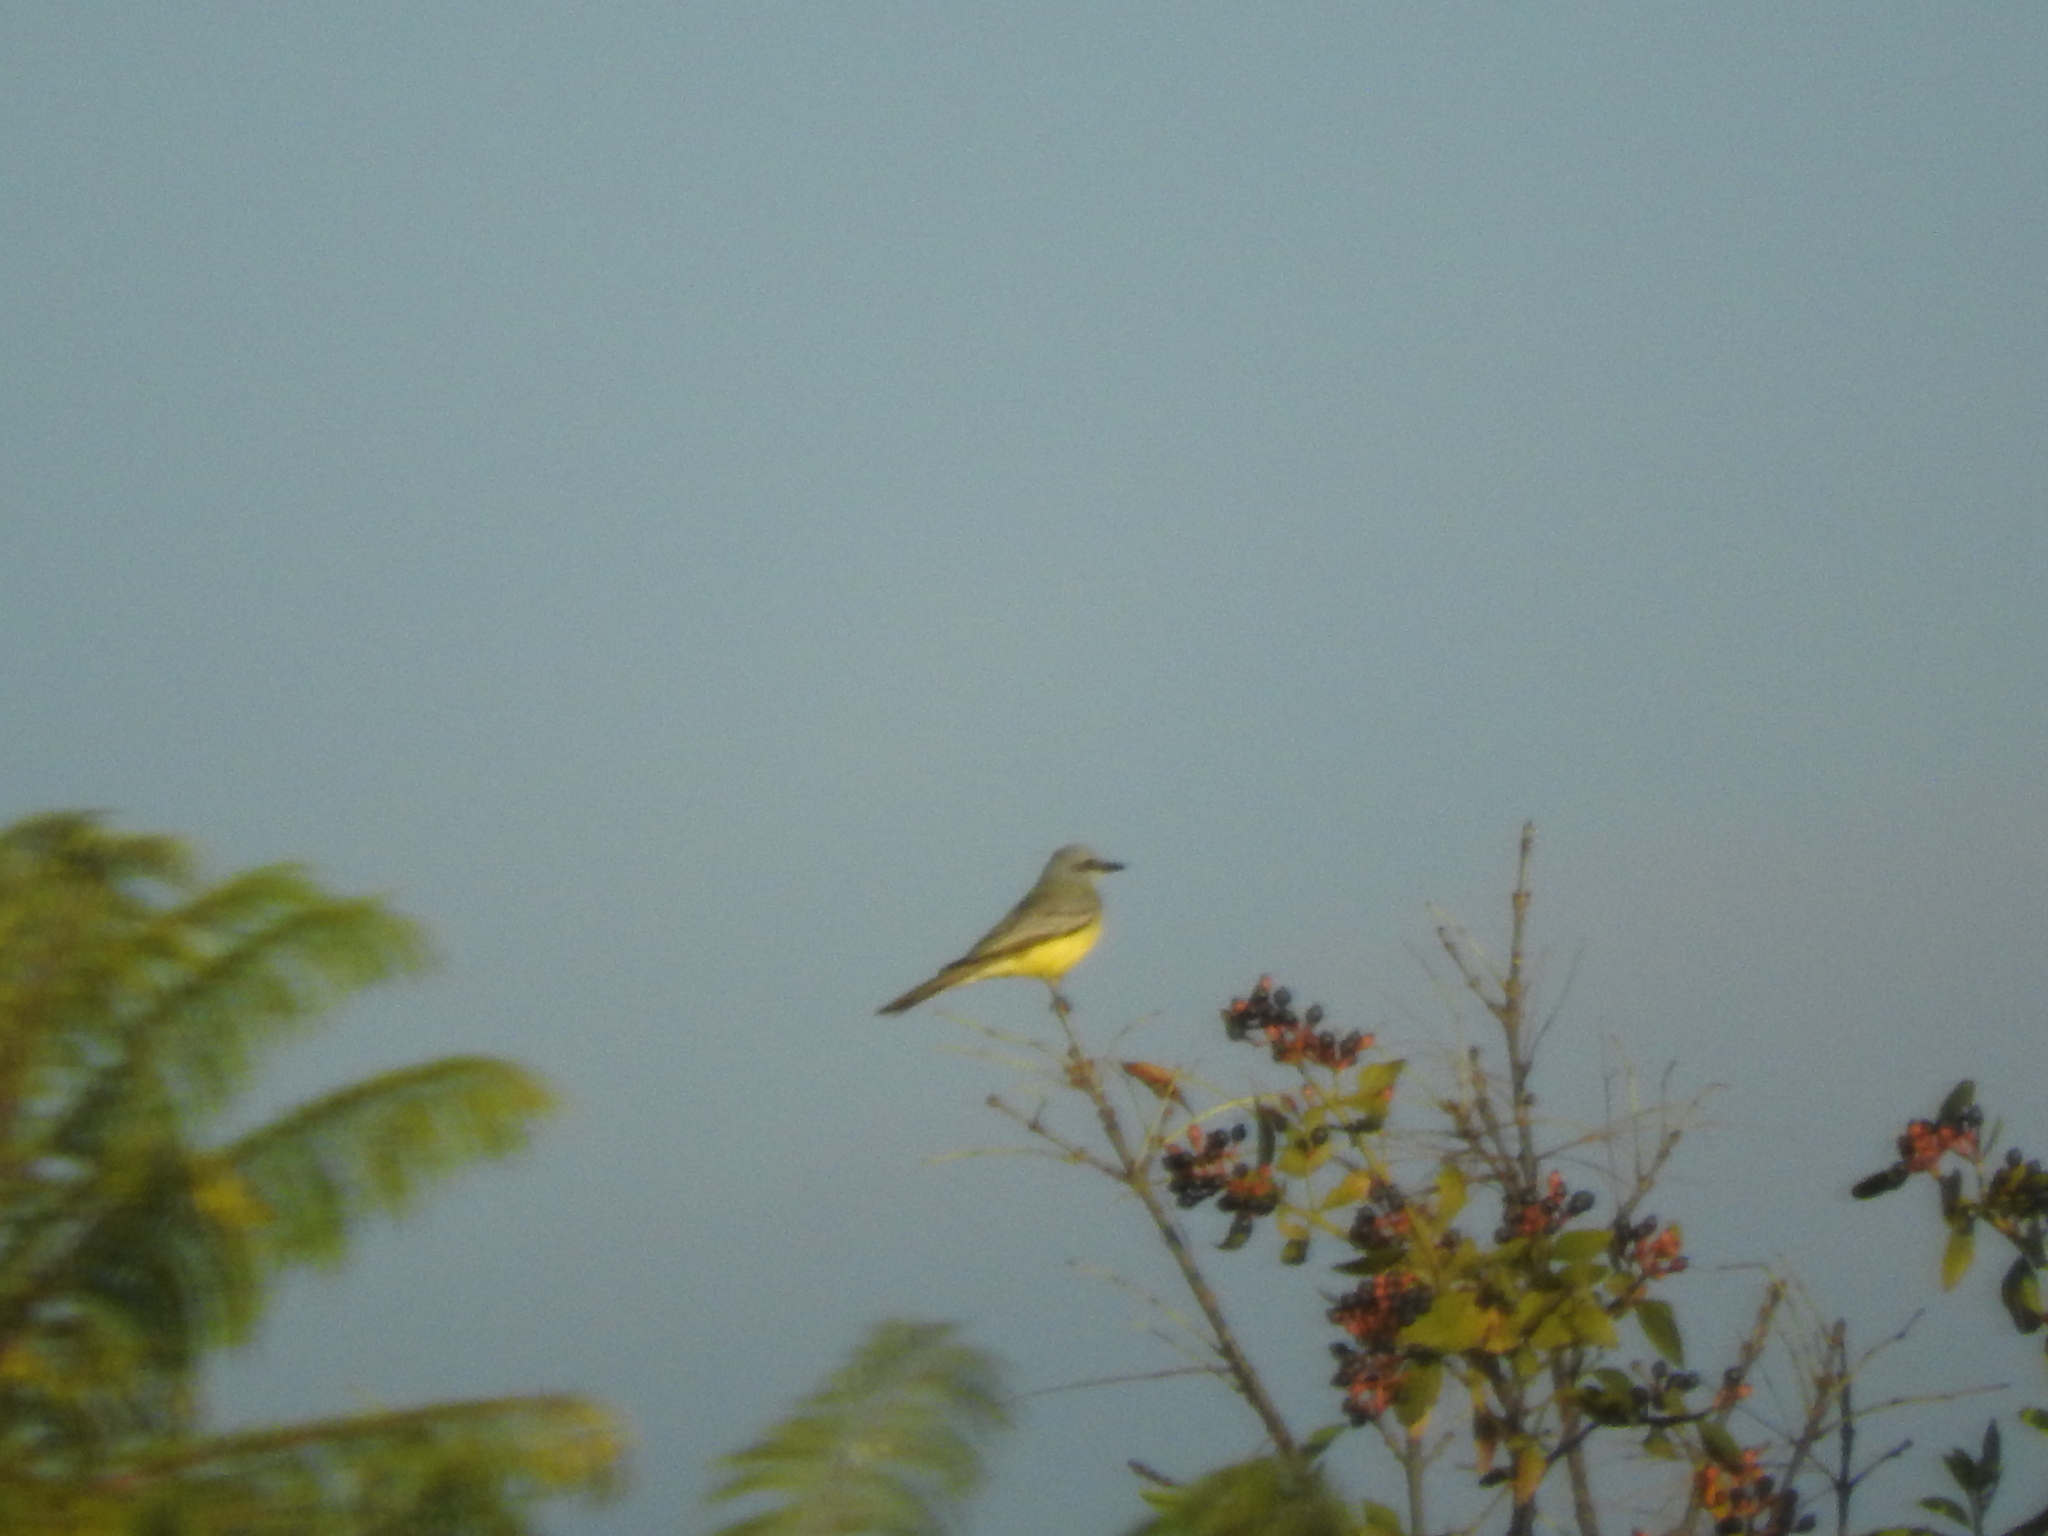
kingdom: Animalia
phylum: Chordata
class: Aves
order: Passeriformes
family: Tyrannidae
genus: Tyrannus
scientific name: Tyrannus melancholicus
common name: Tropical kingbird
